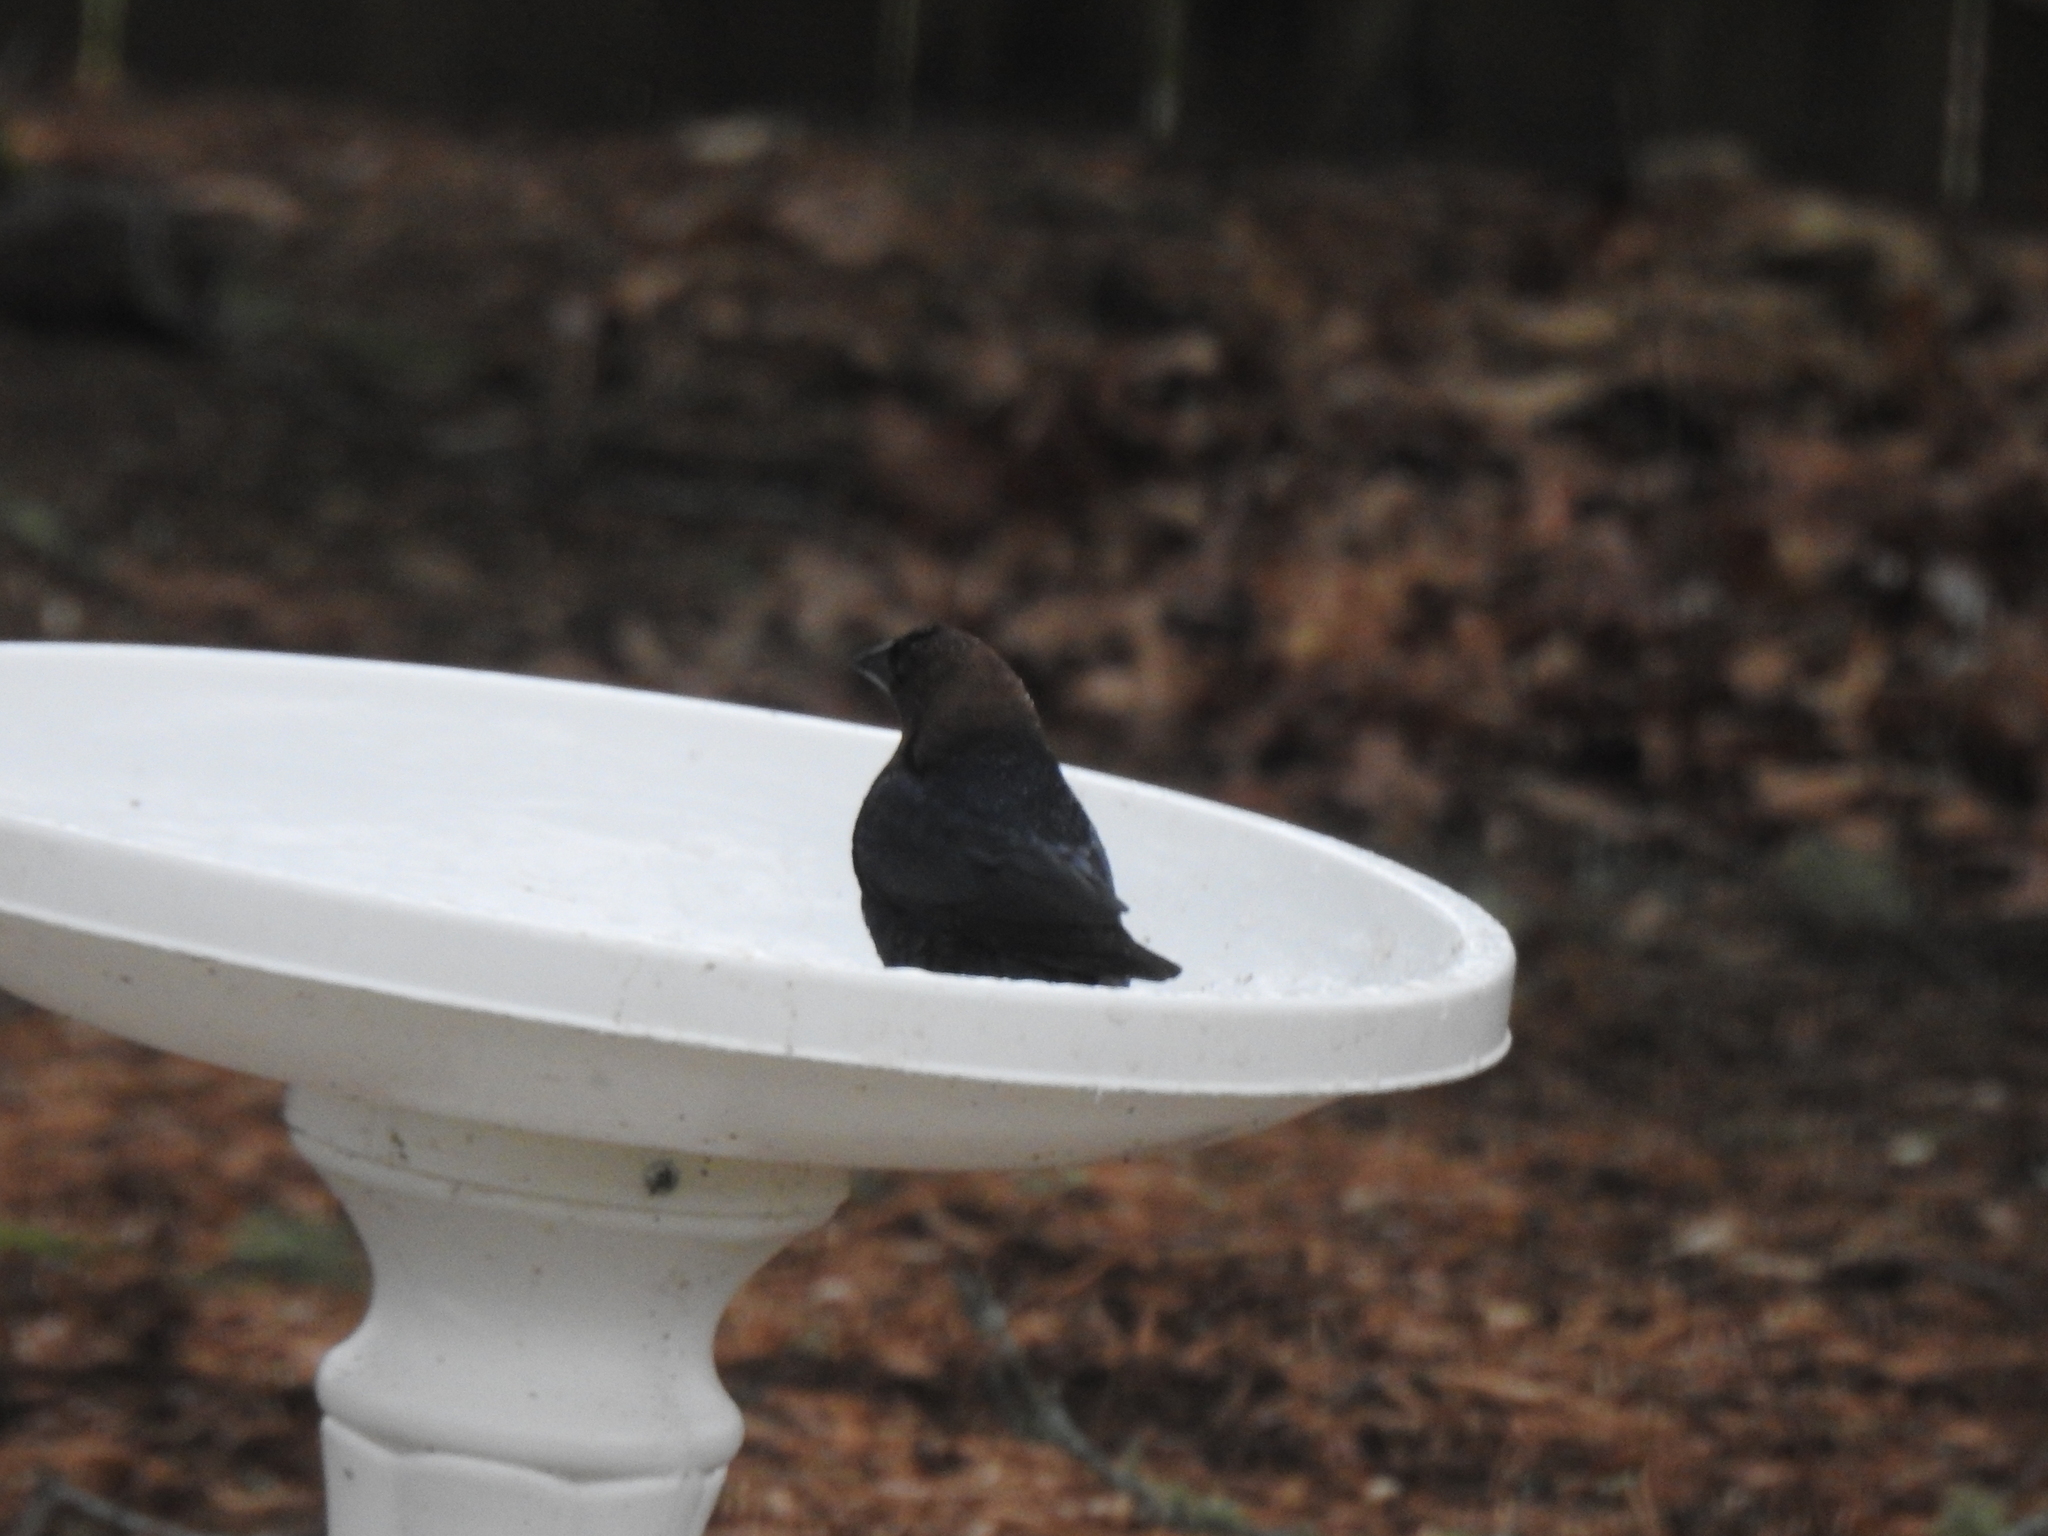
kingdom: Animalia
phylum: Chordata
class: Aves
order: Passeriformes
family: Icteridae
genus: Molothrus
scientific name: Molothrus ater
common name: Brown-headed cowbird
